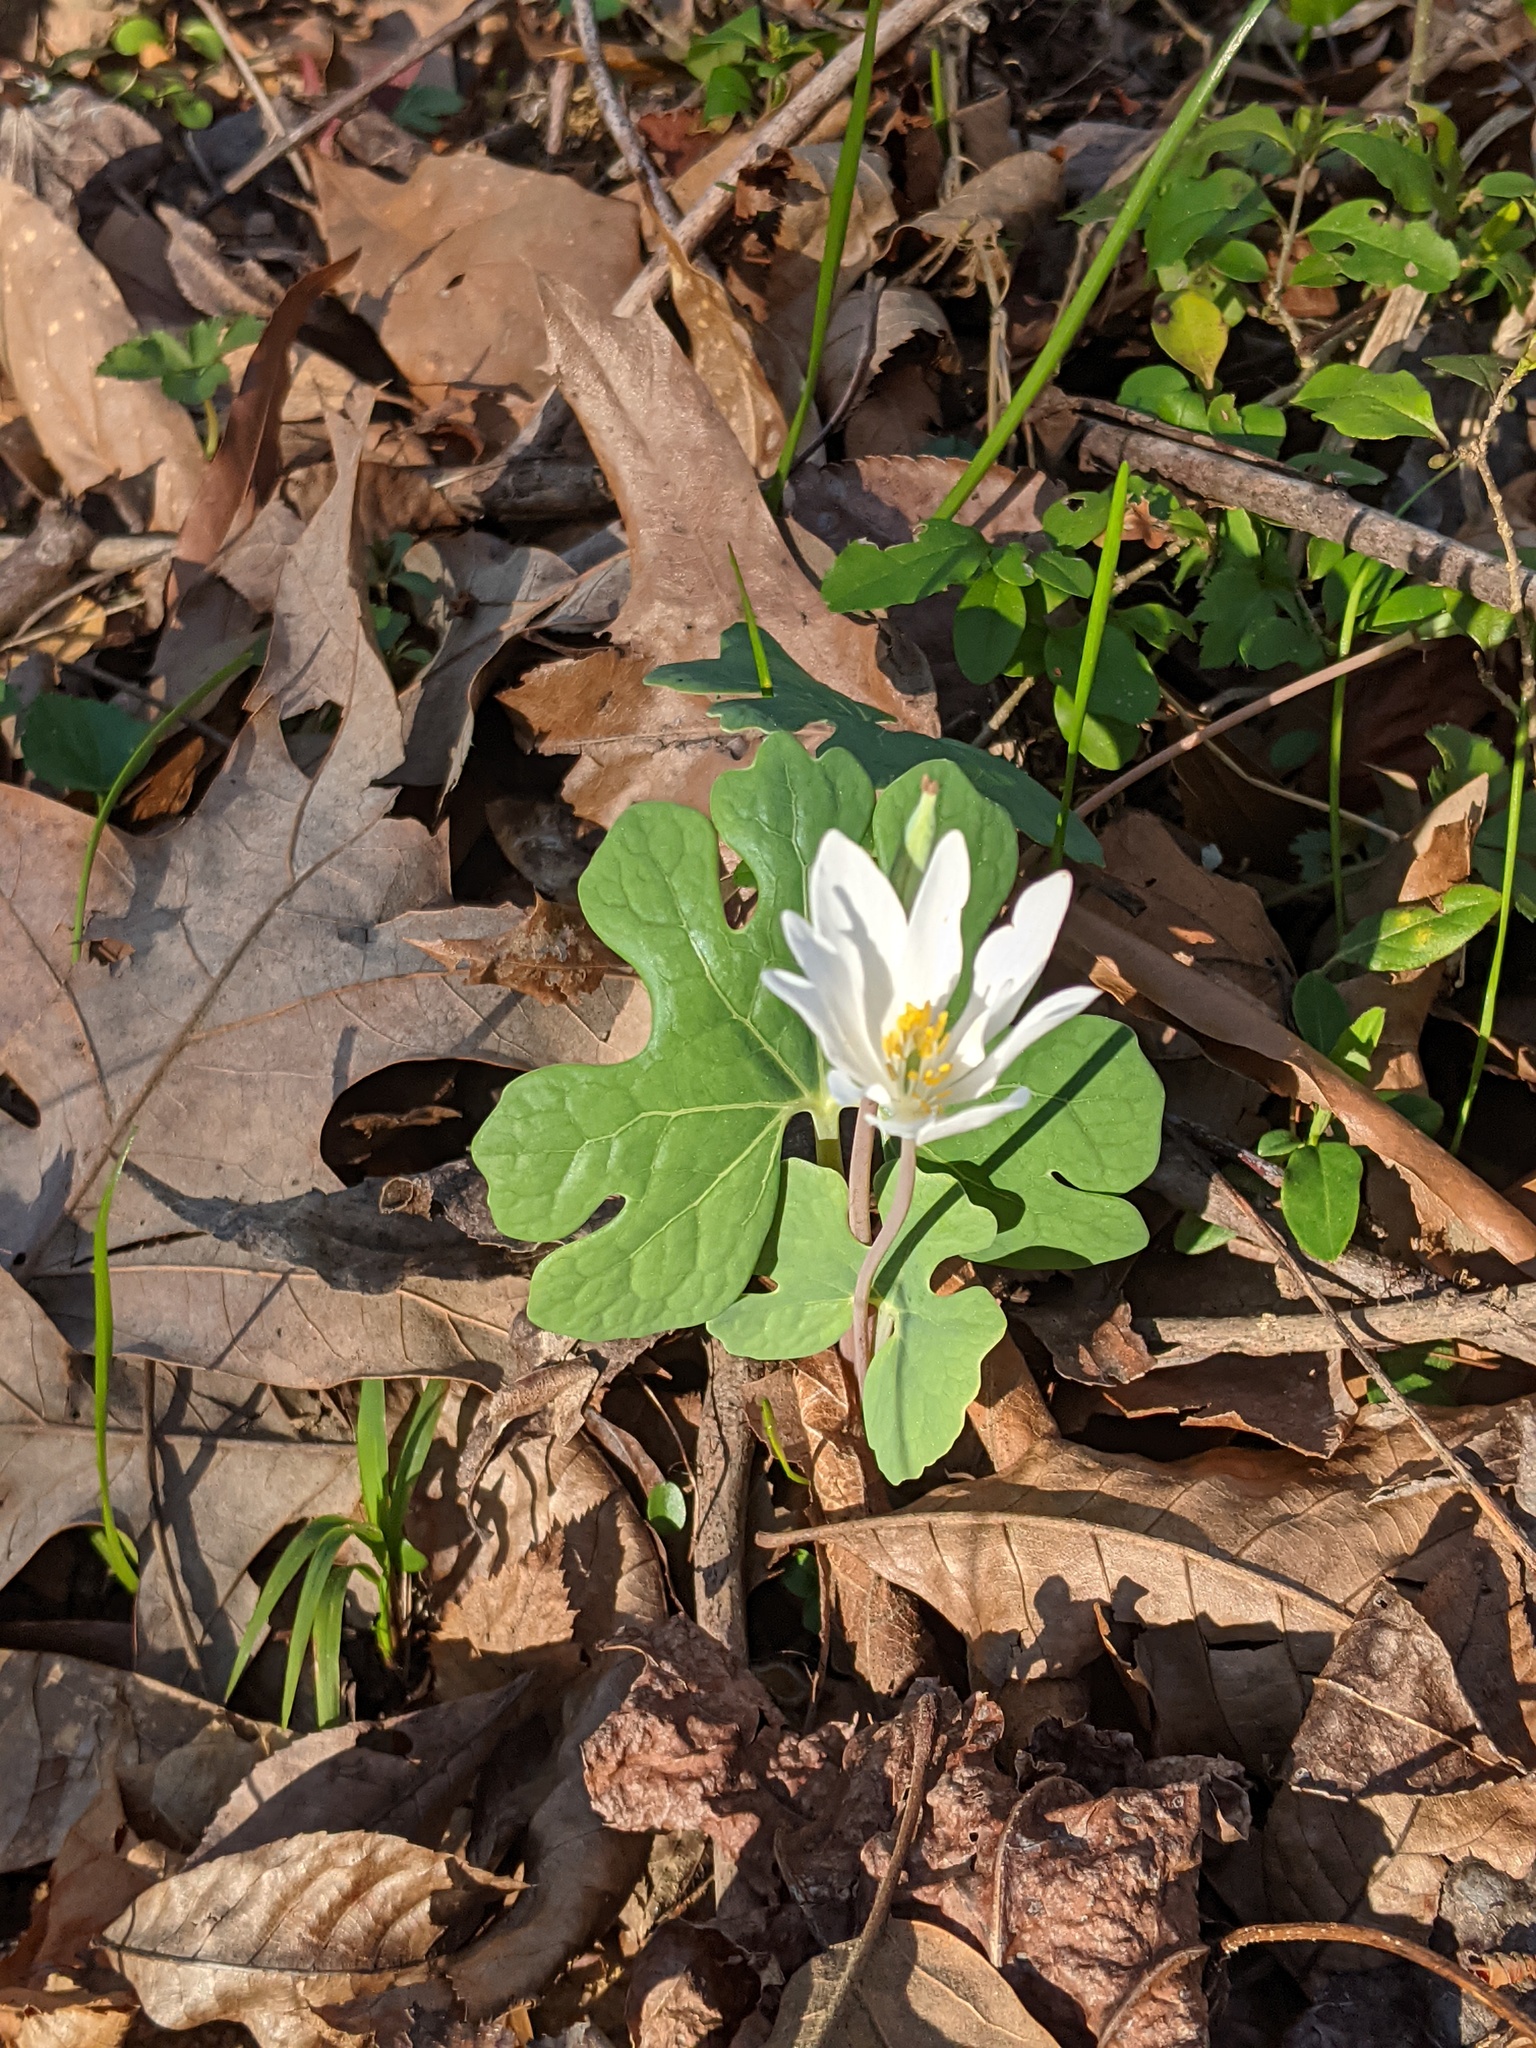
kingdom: Plantae
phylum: Tracheophyta
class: Magnoliopsida
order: Ranunculales
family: Papaveraceae
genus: Sanguinaria
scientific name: Sanguinaria canadensis
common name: Bloodroot
